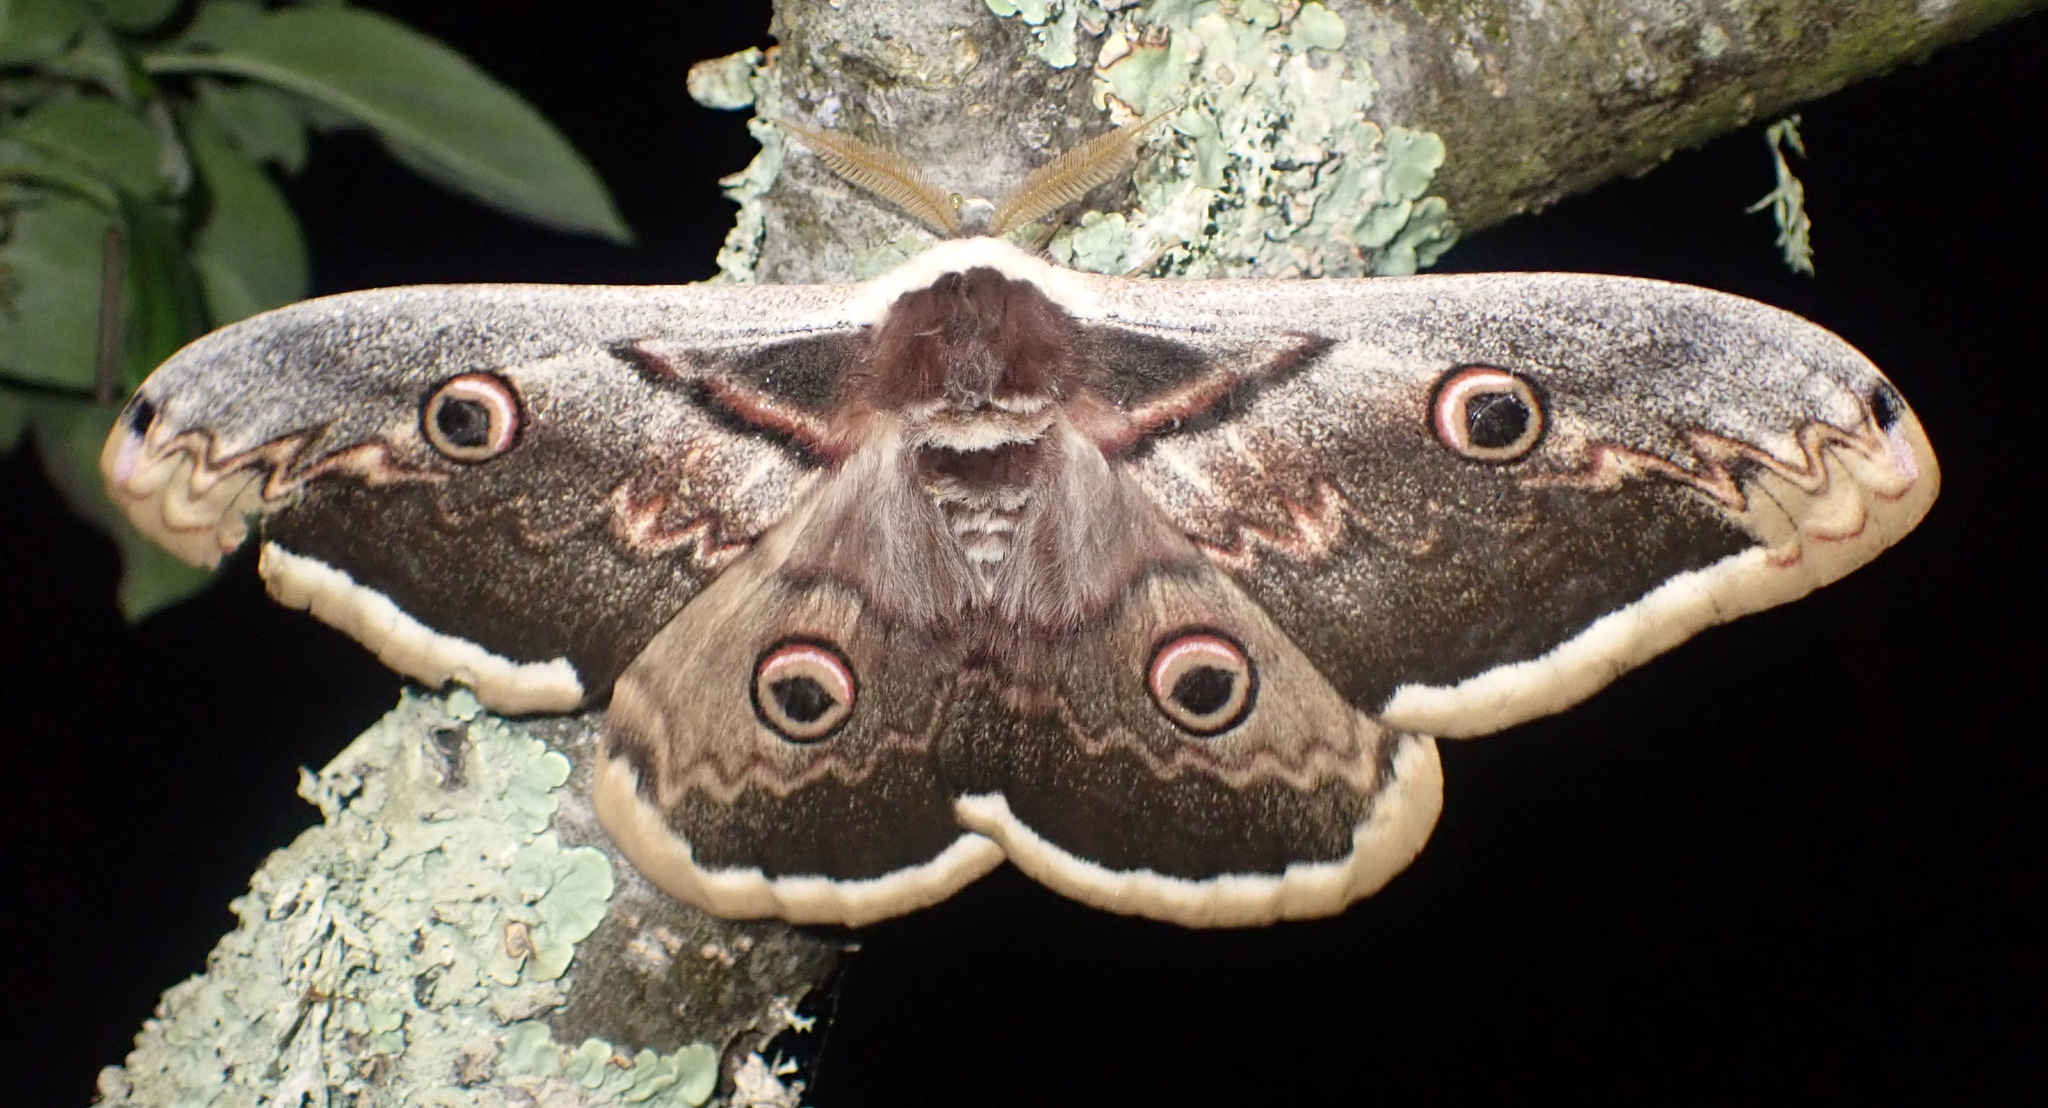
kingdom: Animalia
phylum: Arthropoda
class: Insecta
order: Lepidoptera
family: Saturniidae
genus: Saturnia
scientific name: Saturnia pyri
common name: Great peacock moth
